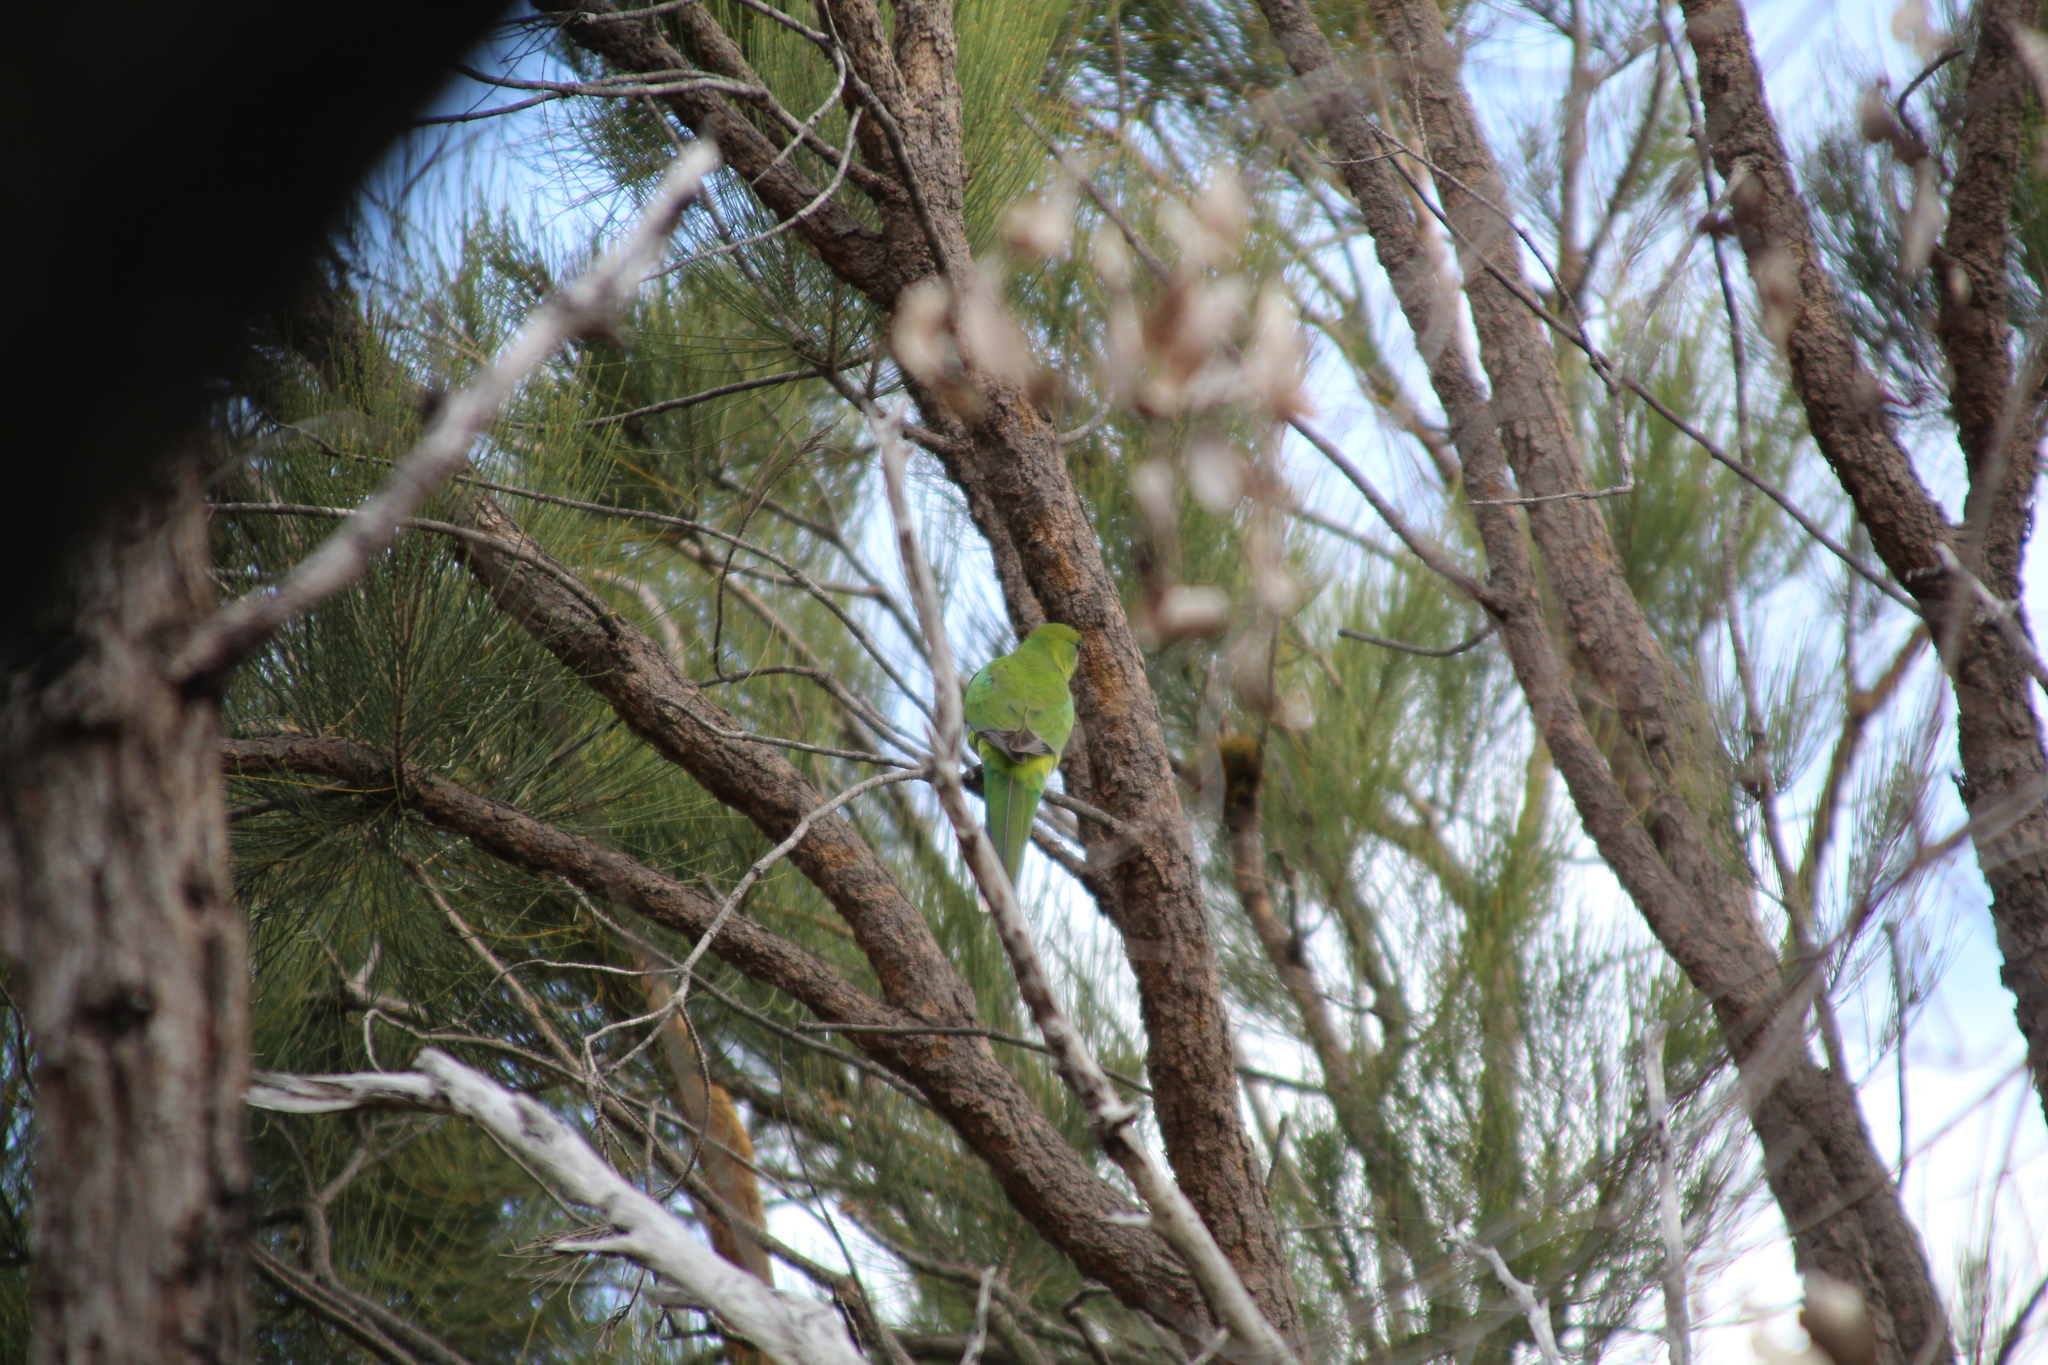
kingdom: Animalia
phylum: Chordata
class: Aves
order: Psittaciformes
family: Psittacidae
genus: Purpureicephalus
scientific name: Purpureicephalus spurius
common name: Red-capped parrot
